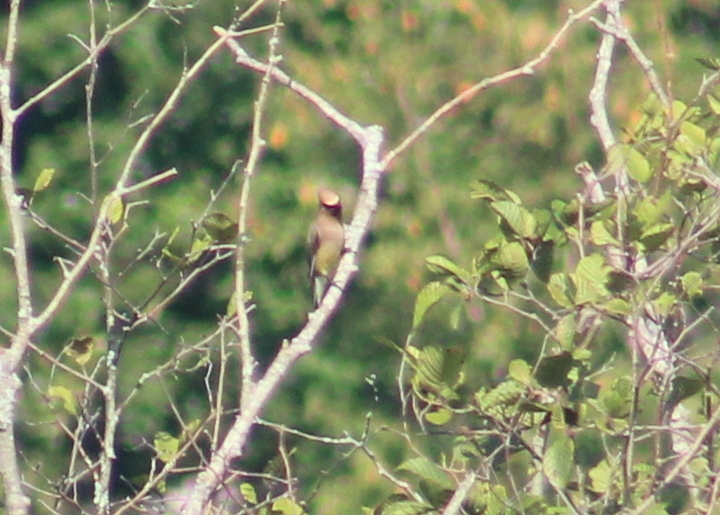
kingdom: Animalia
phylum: Chordata
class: Aves
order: Passeriformes
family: Bombycillidae
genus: Bombycilla
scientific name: Bombycilla cedrorum
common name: Cedar waxwing
